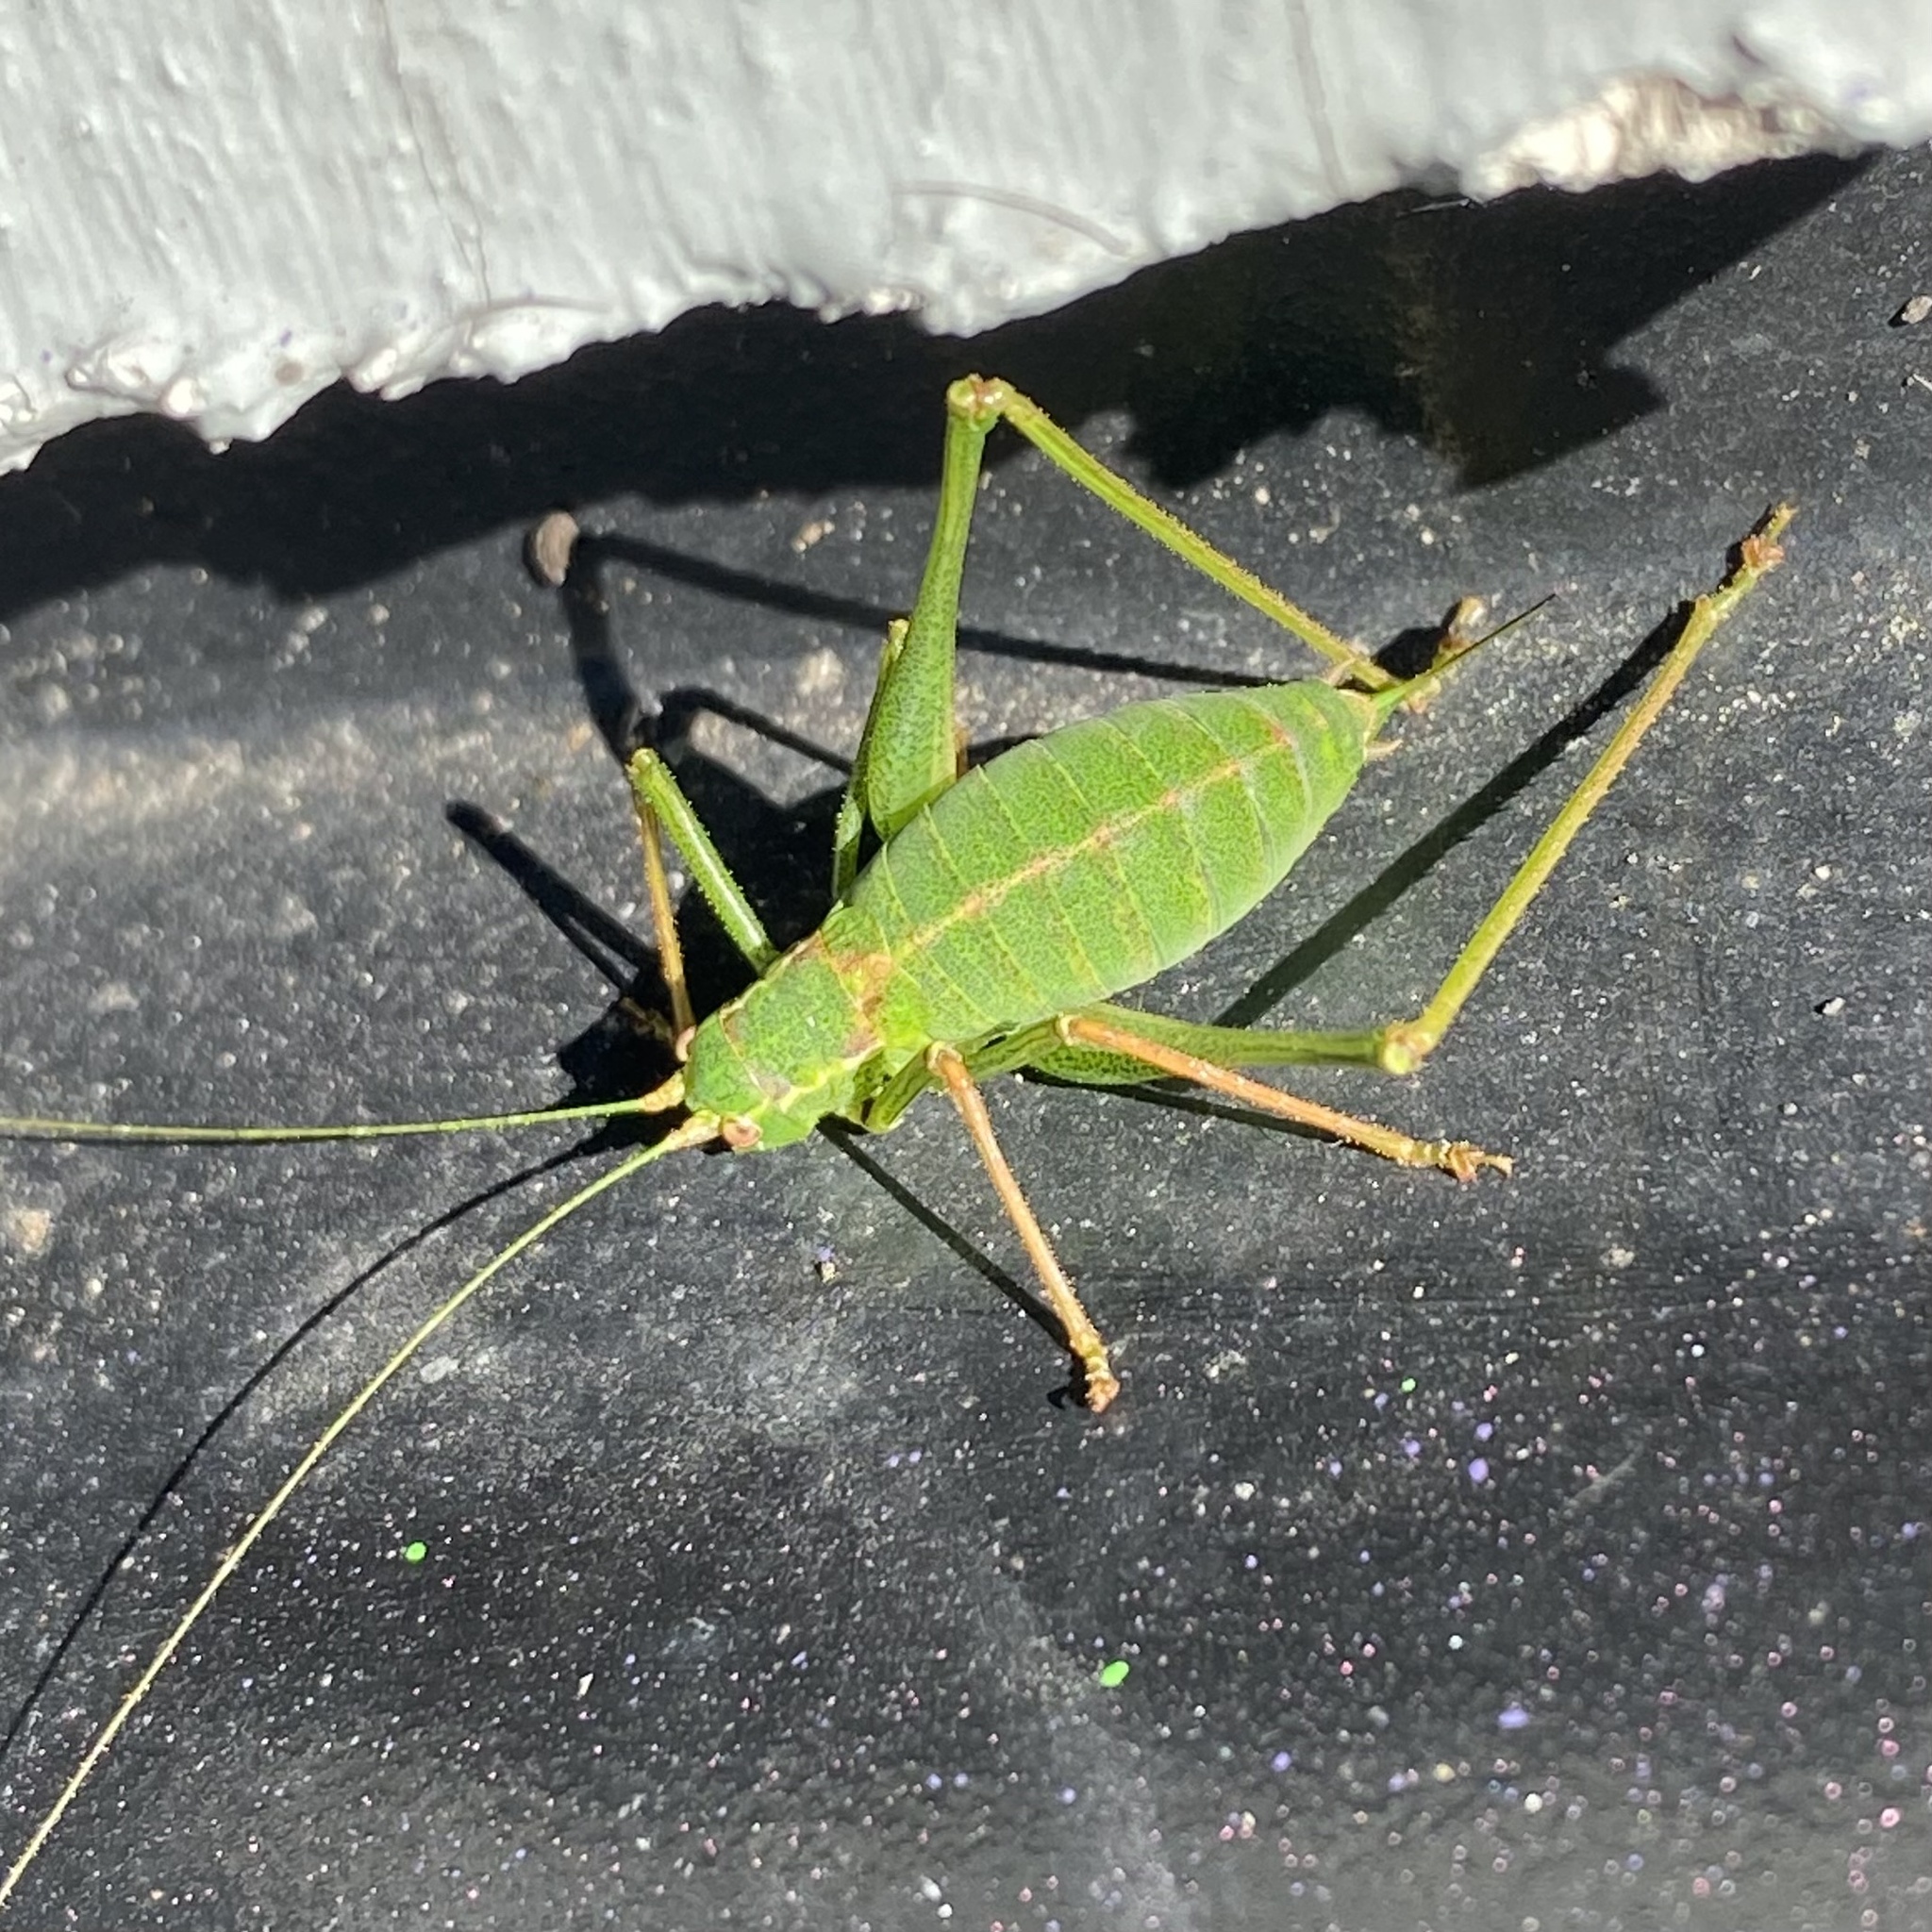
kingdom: Animalia
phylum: Arthropoda
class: Insecta
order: Orthoptera
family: Tettigoniidae
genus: Leptophyes
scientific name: Leptophyes punctatissima
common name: Speckled bush-cricket
